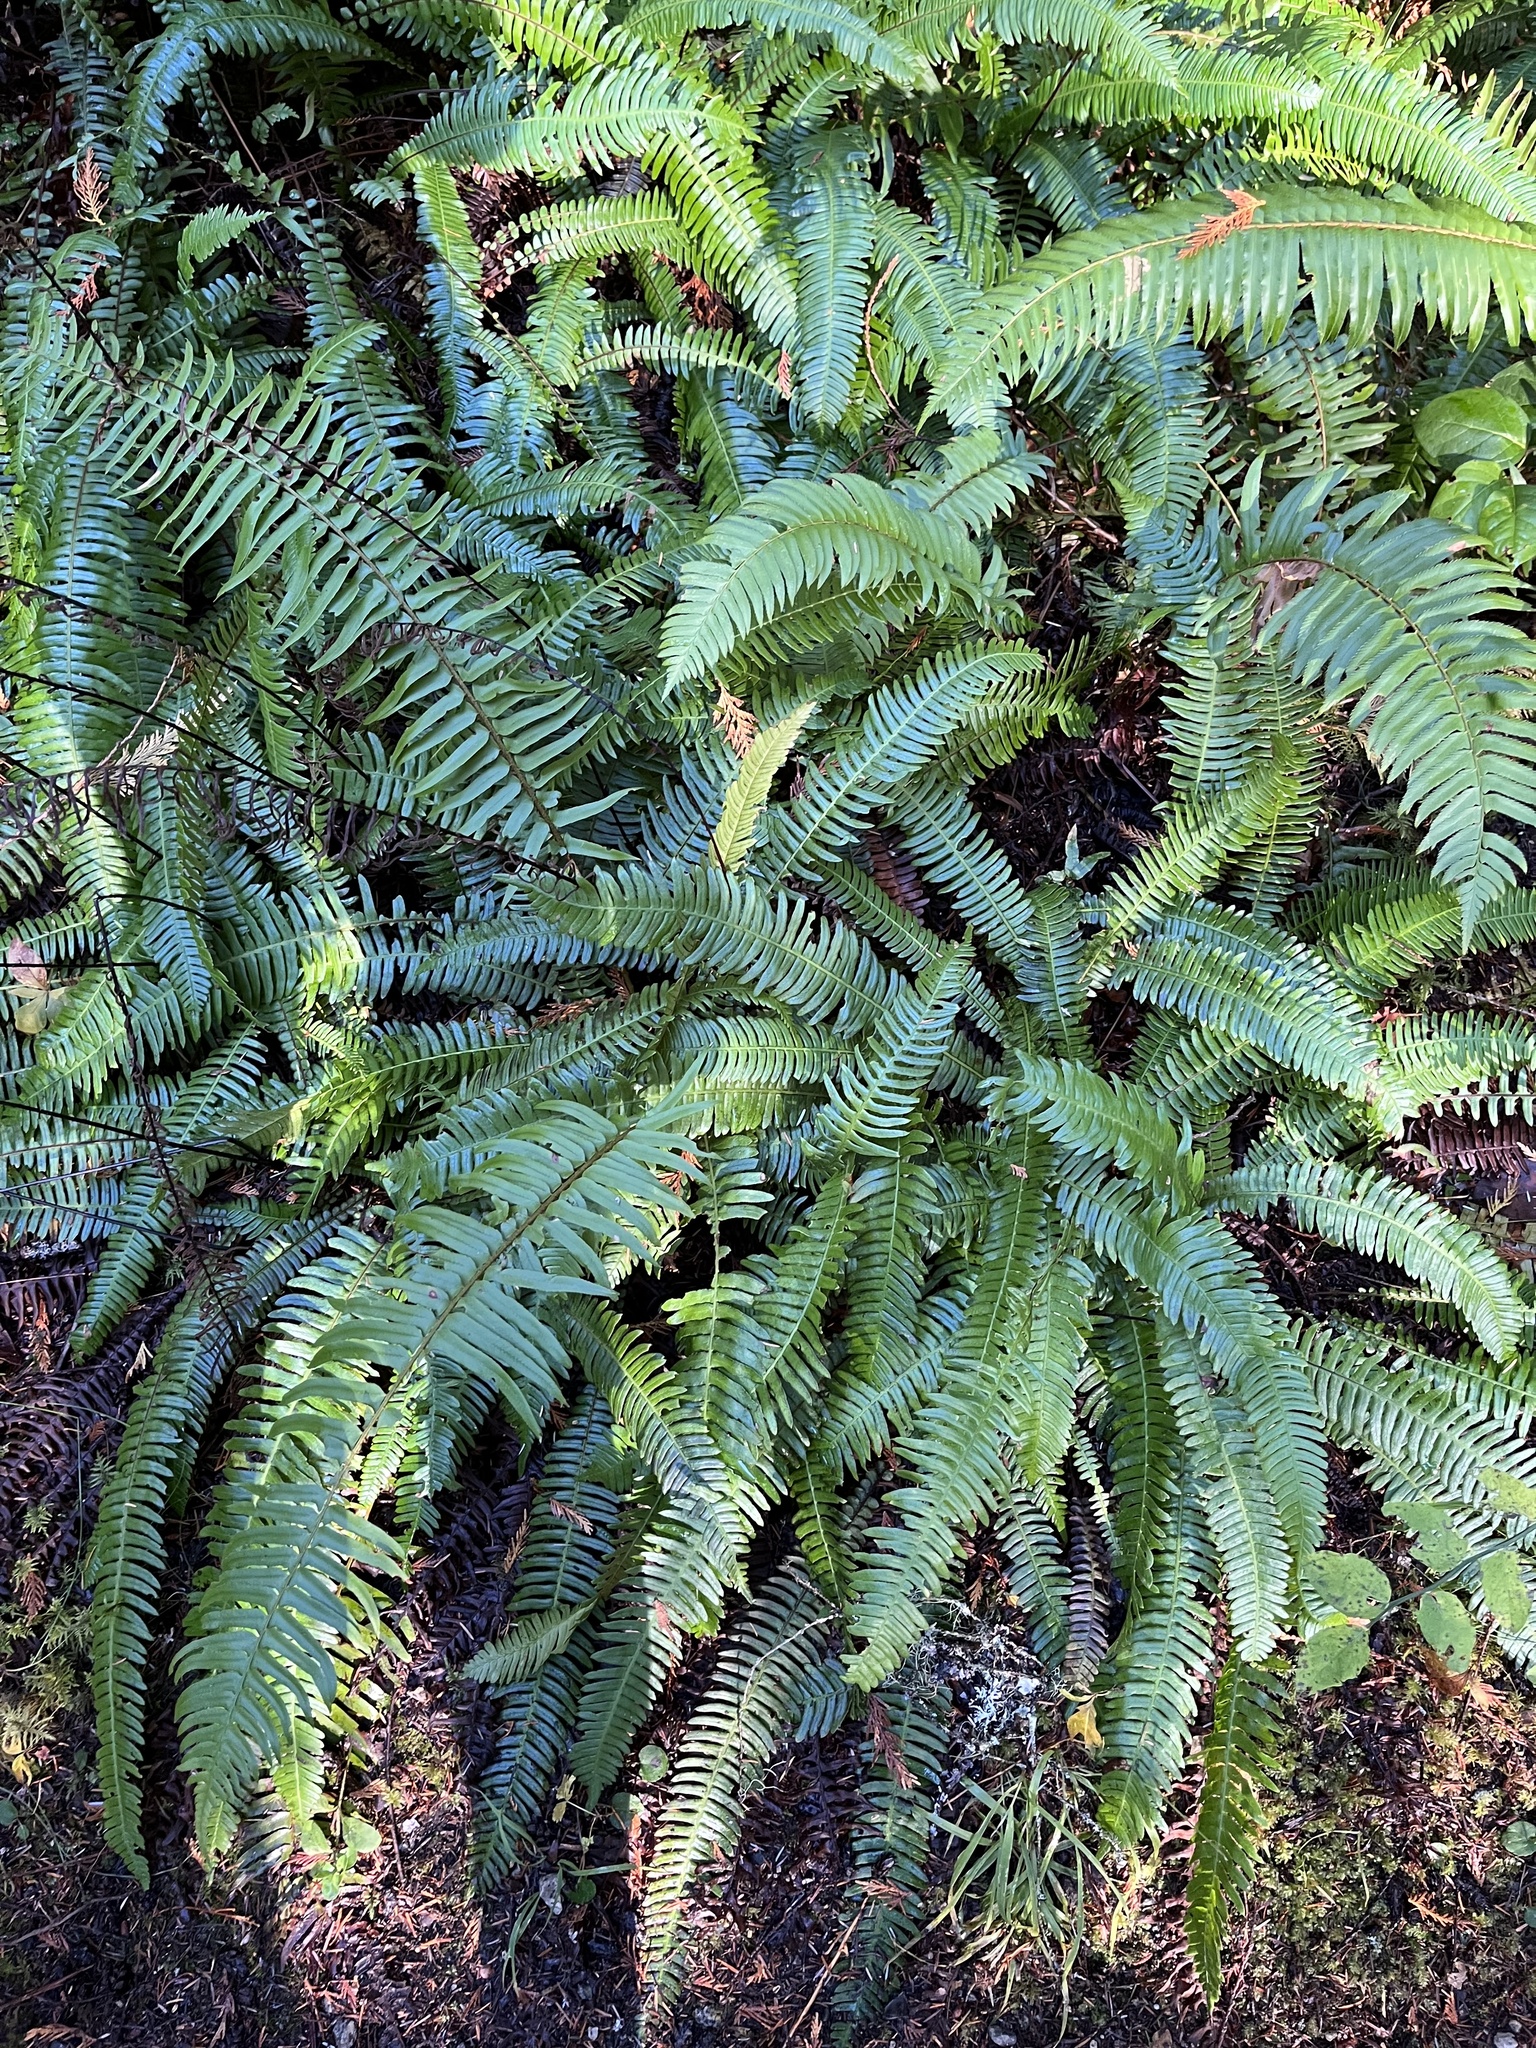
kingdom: Plantae
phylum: Tracheophyta
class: Polypodiopsida
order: Polypodiales
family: Dryopteridaceae
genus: Polystichum
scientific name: Polystichum munitum
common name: Western sword-fern
